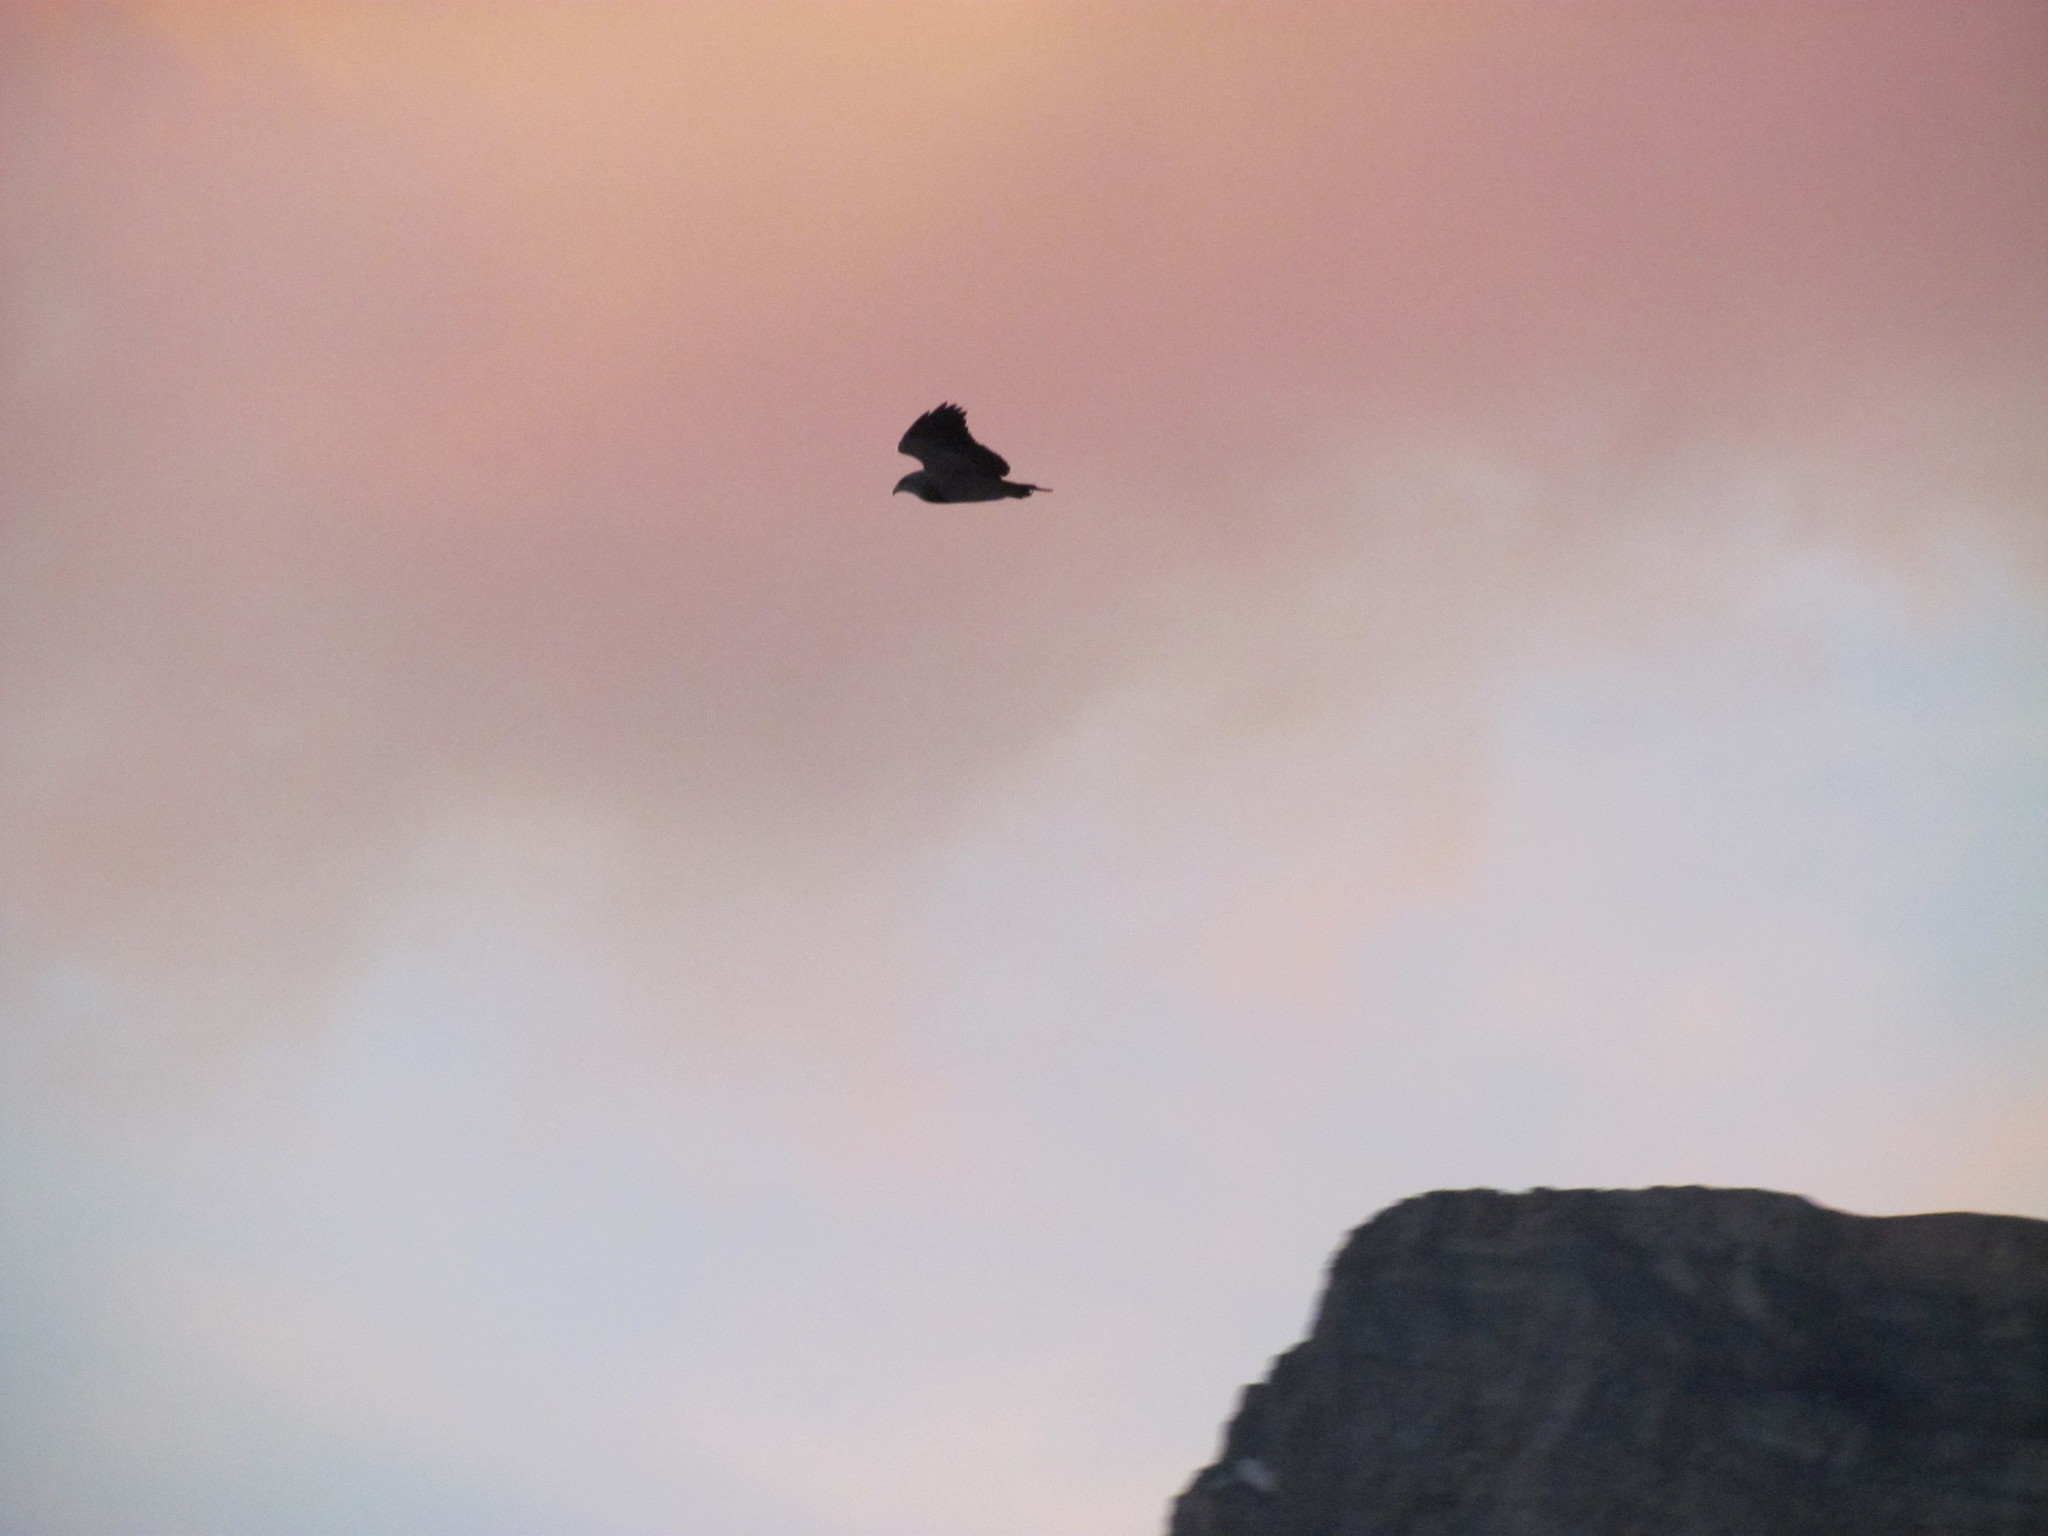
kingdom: Animalia
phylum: Chordata
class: Aves
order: Accipitriformes
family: Accipitridae
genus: Geranoaetus
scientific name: Geranoaetus melanoleucus
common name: Black-chested buzzard-eagle
